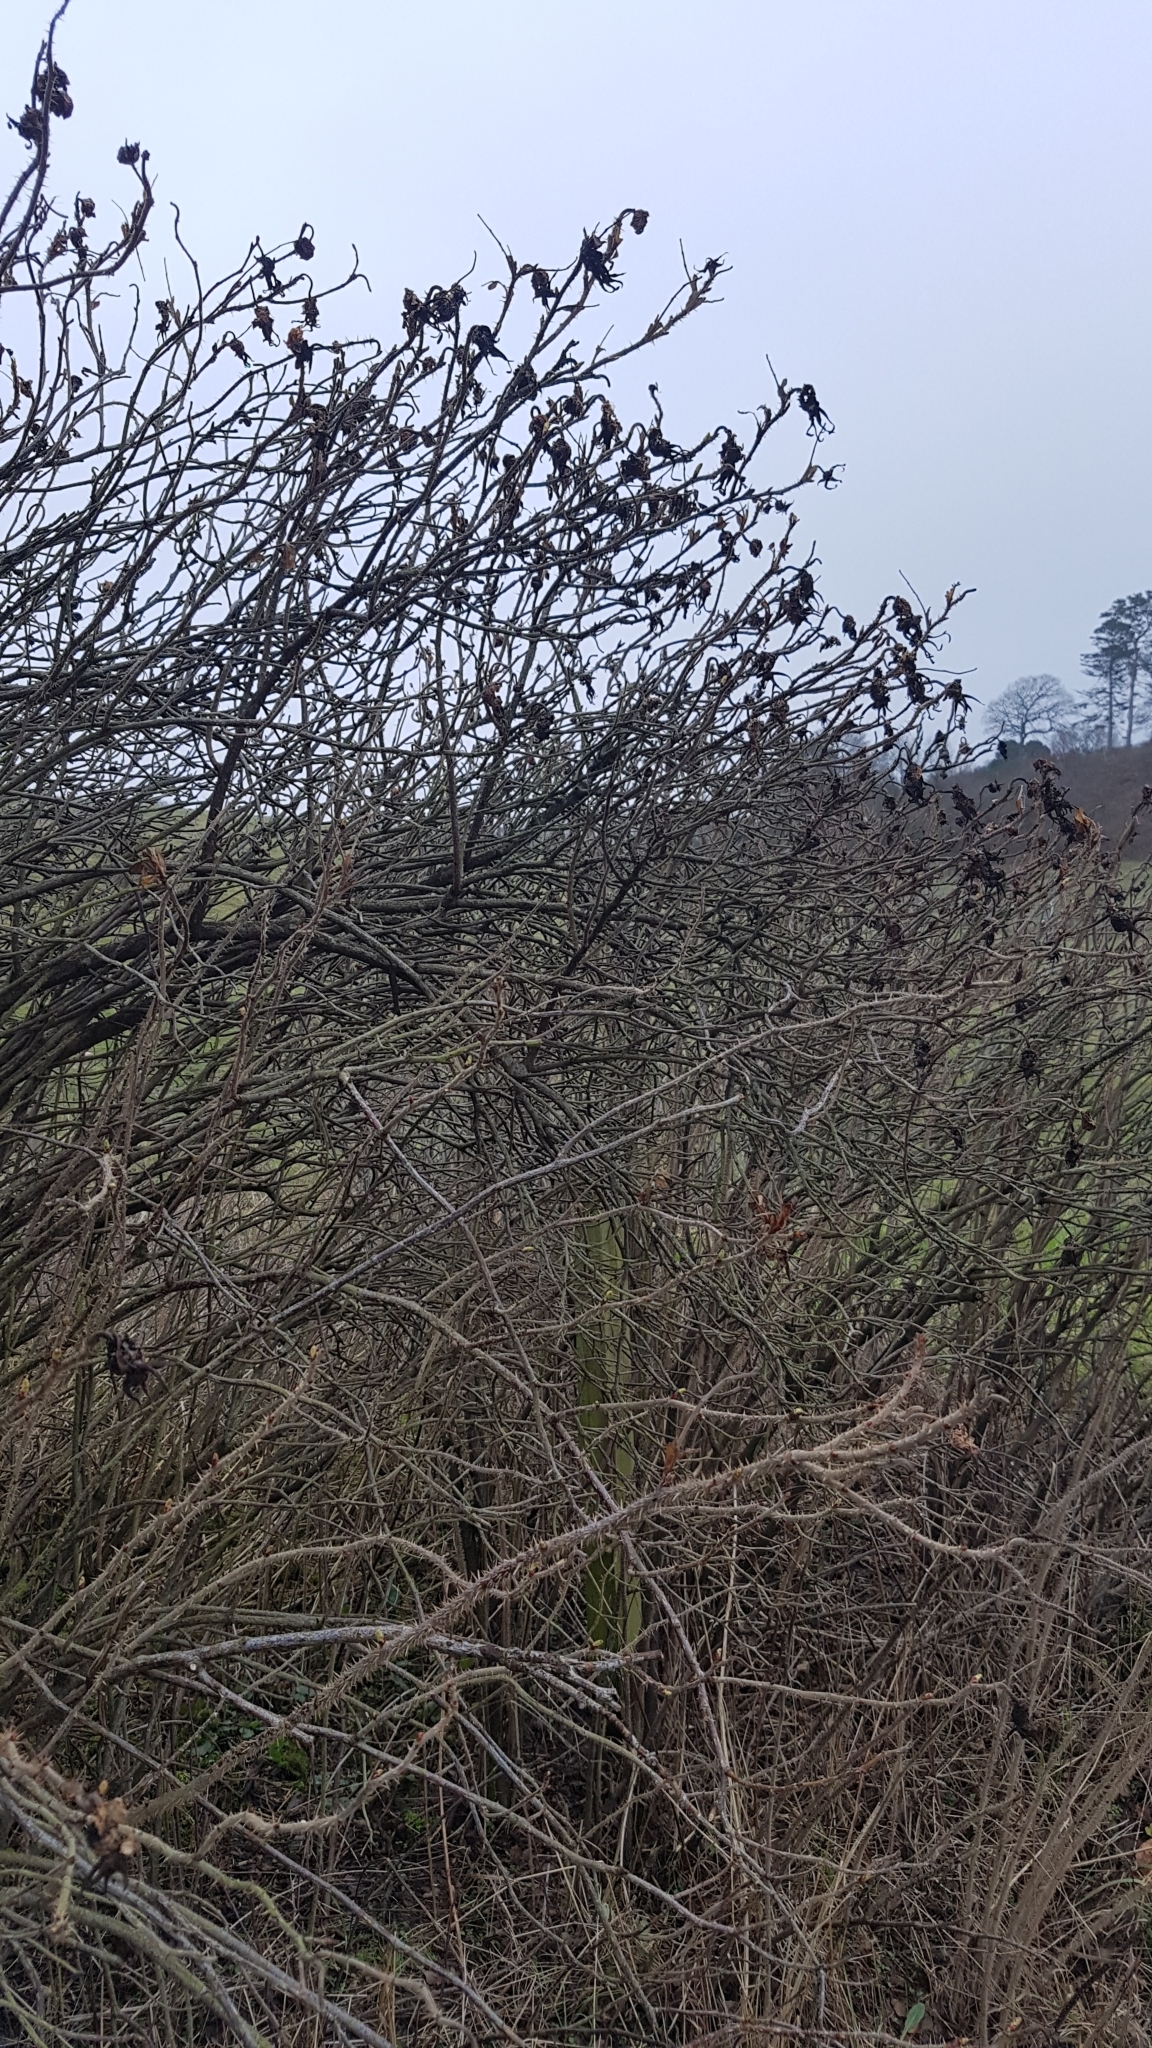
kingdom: Plantae
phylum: Tracheophyta
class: Magnoliopsida
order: Rosales
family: Rosaceae
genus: Rosa
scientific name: Rosa rugosa
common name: Japanese rose
